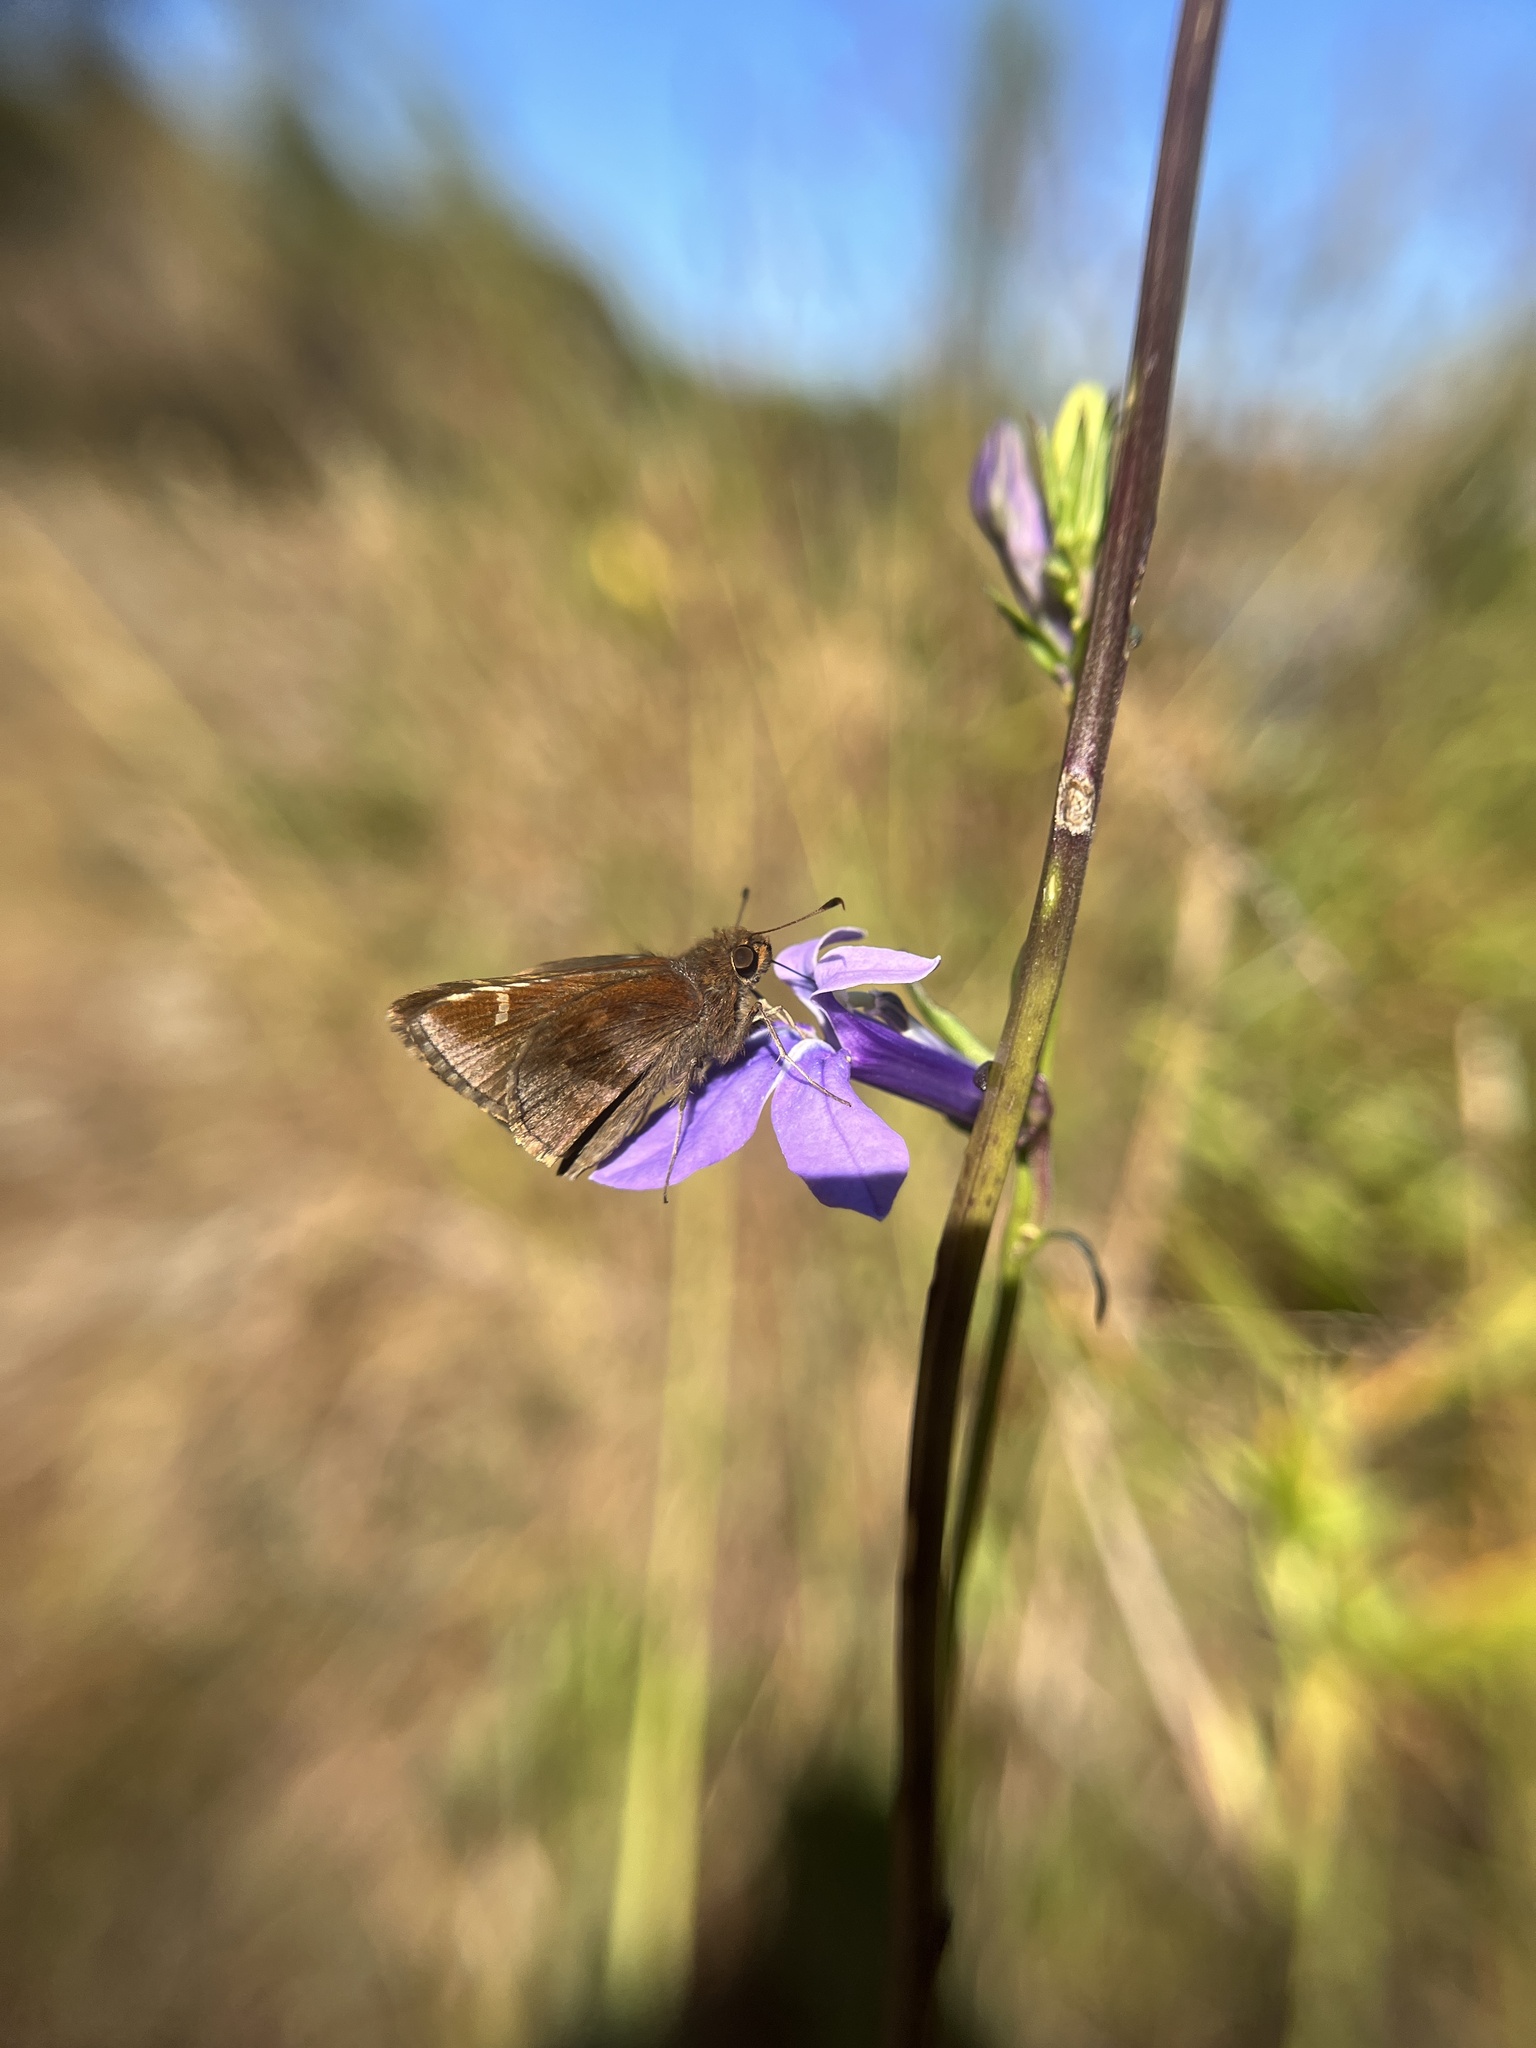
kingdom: Animalia
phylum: Arthropoda
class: Insecta
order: Lepidoptera
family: Hesperiidae
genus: Lerema
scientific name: Lerema accius
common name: Clouded skipper
